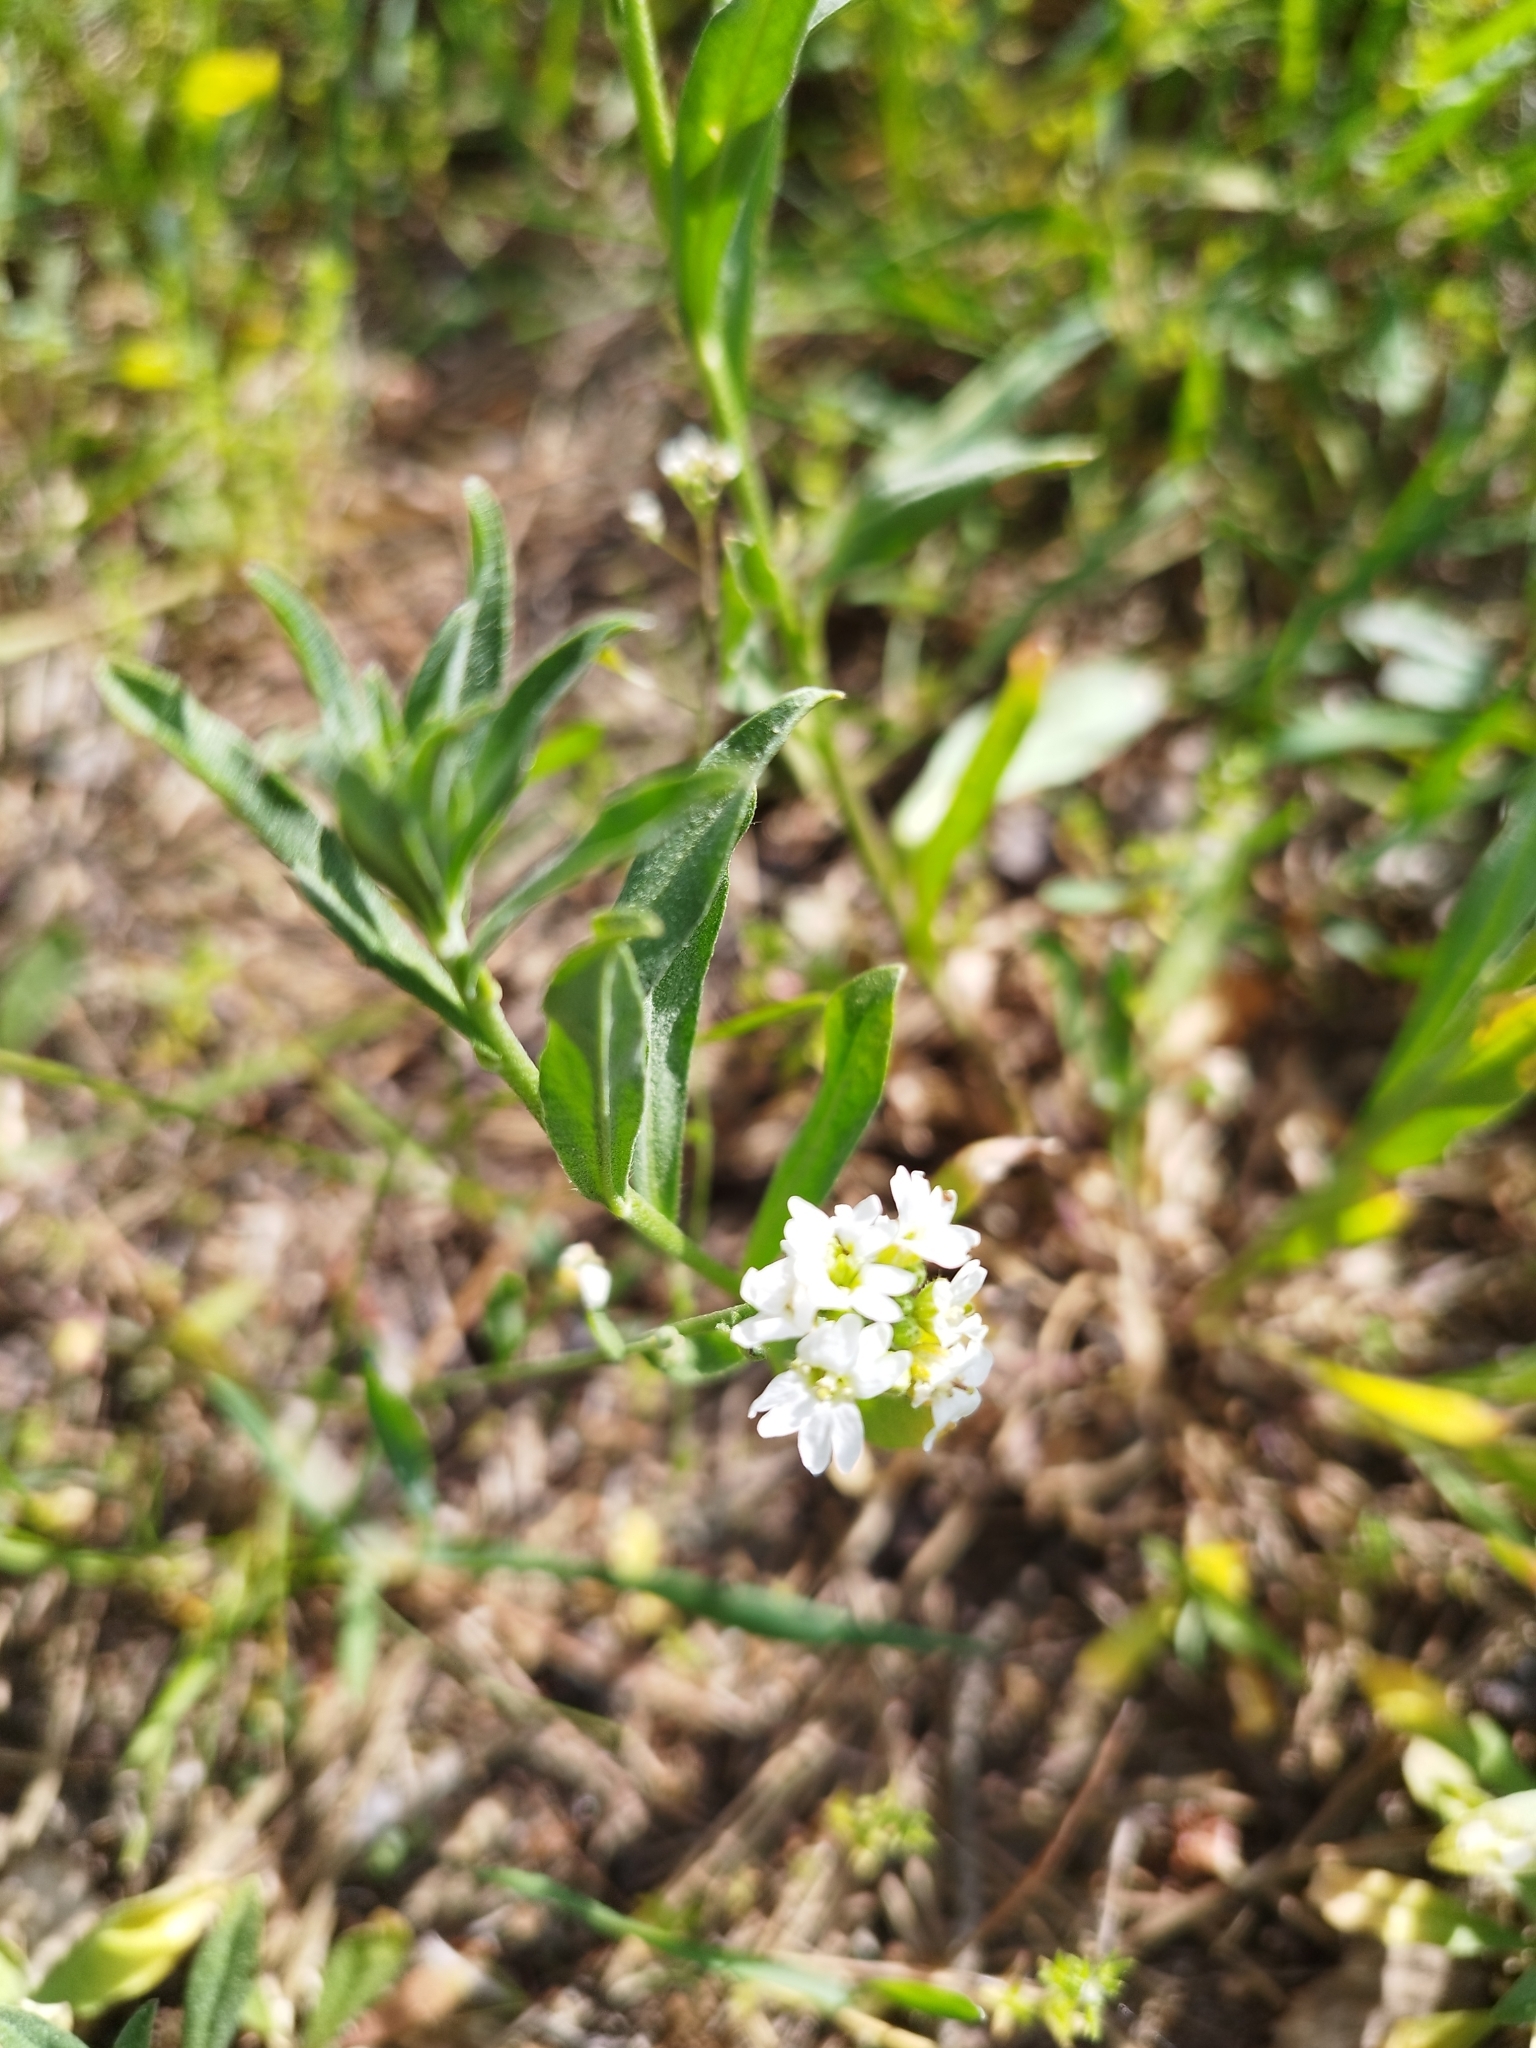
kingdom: Plantae
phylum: Tracheophyta
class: Magnoliopsida
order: Brassicales
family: Brassicaceae
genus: Berteroa
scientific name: Berteroa incana
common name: Hoary alison
